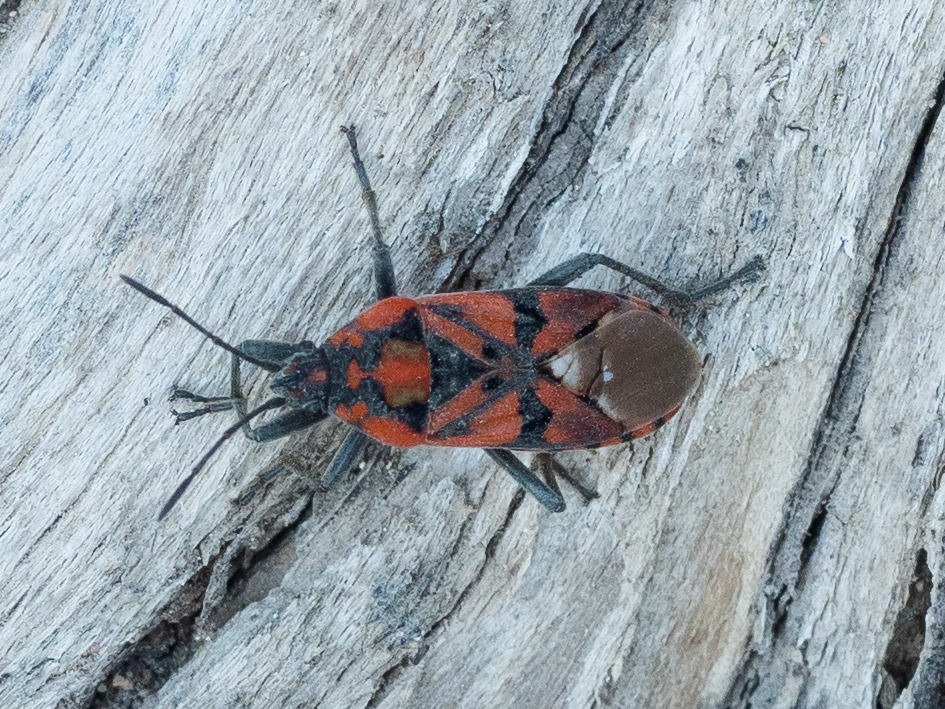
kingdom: Animalia
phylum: Arthropoda
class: Insecta
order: Hemiptera
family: Lygaeidae
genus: Spilostethus
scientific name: Spilostethus pandurus
